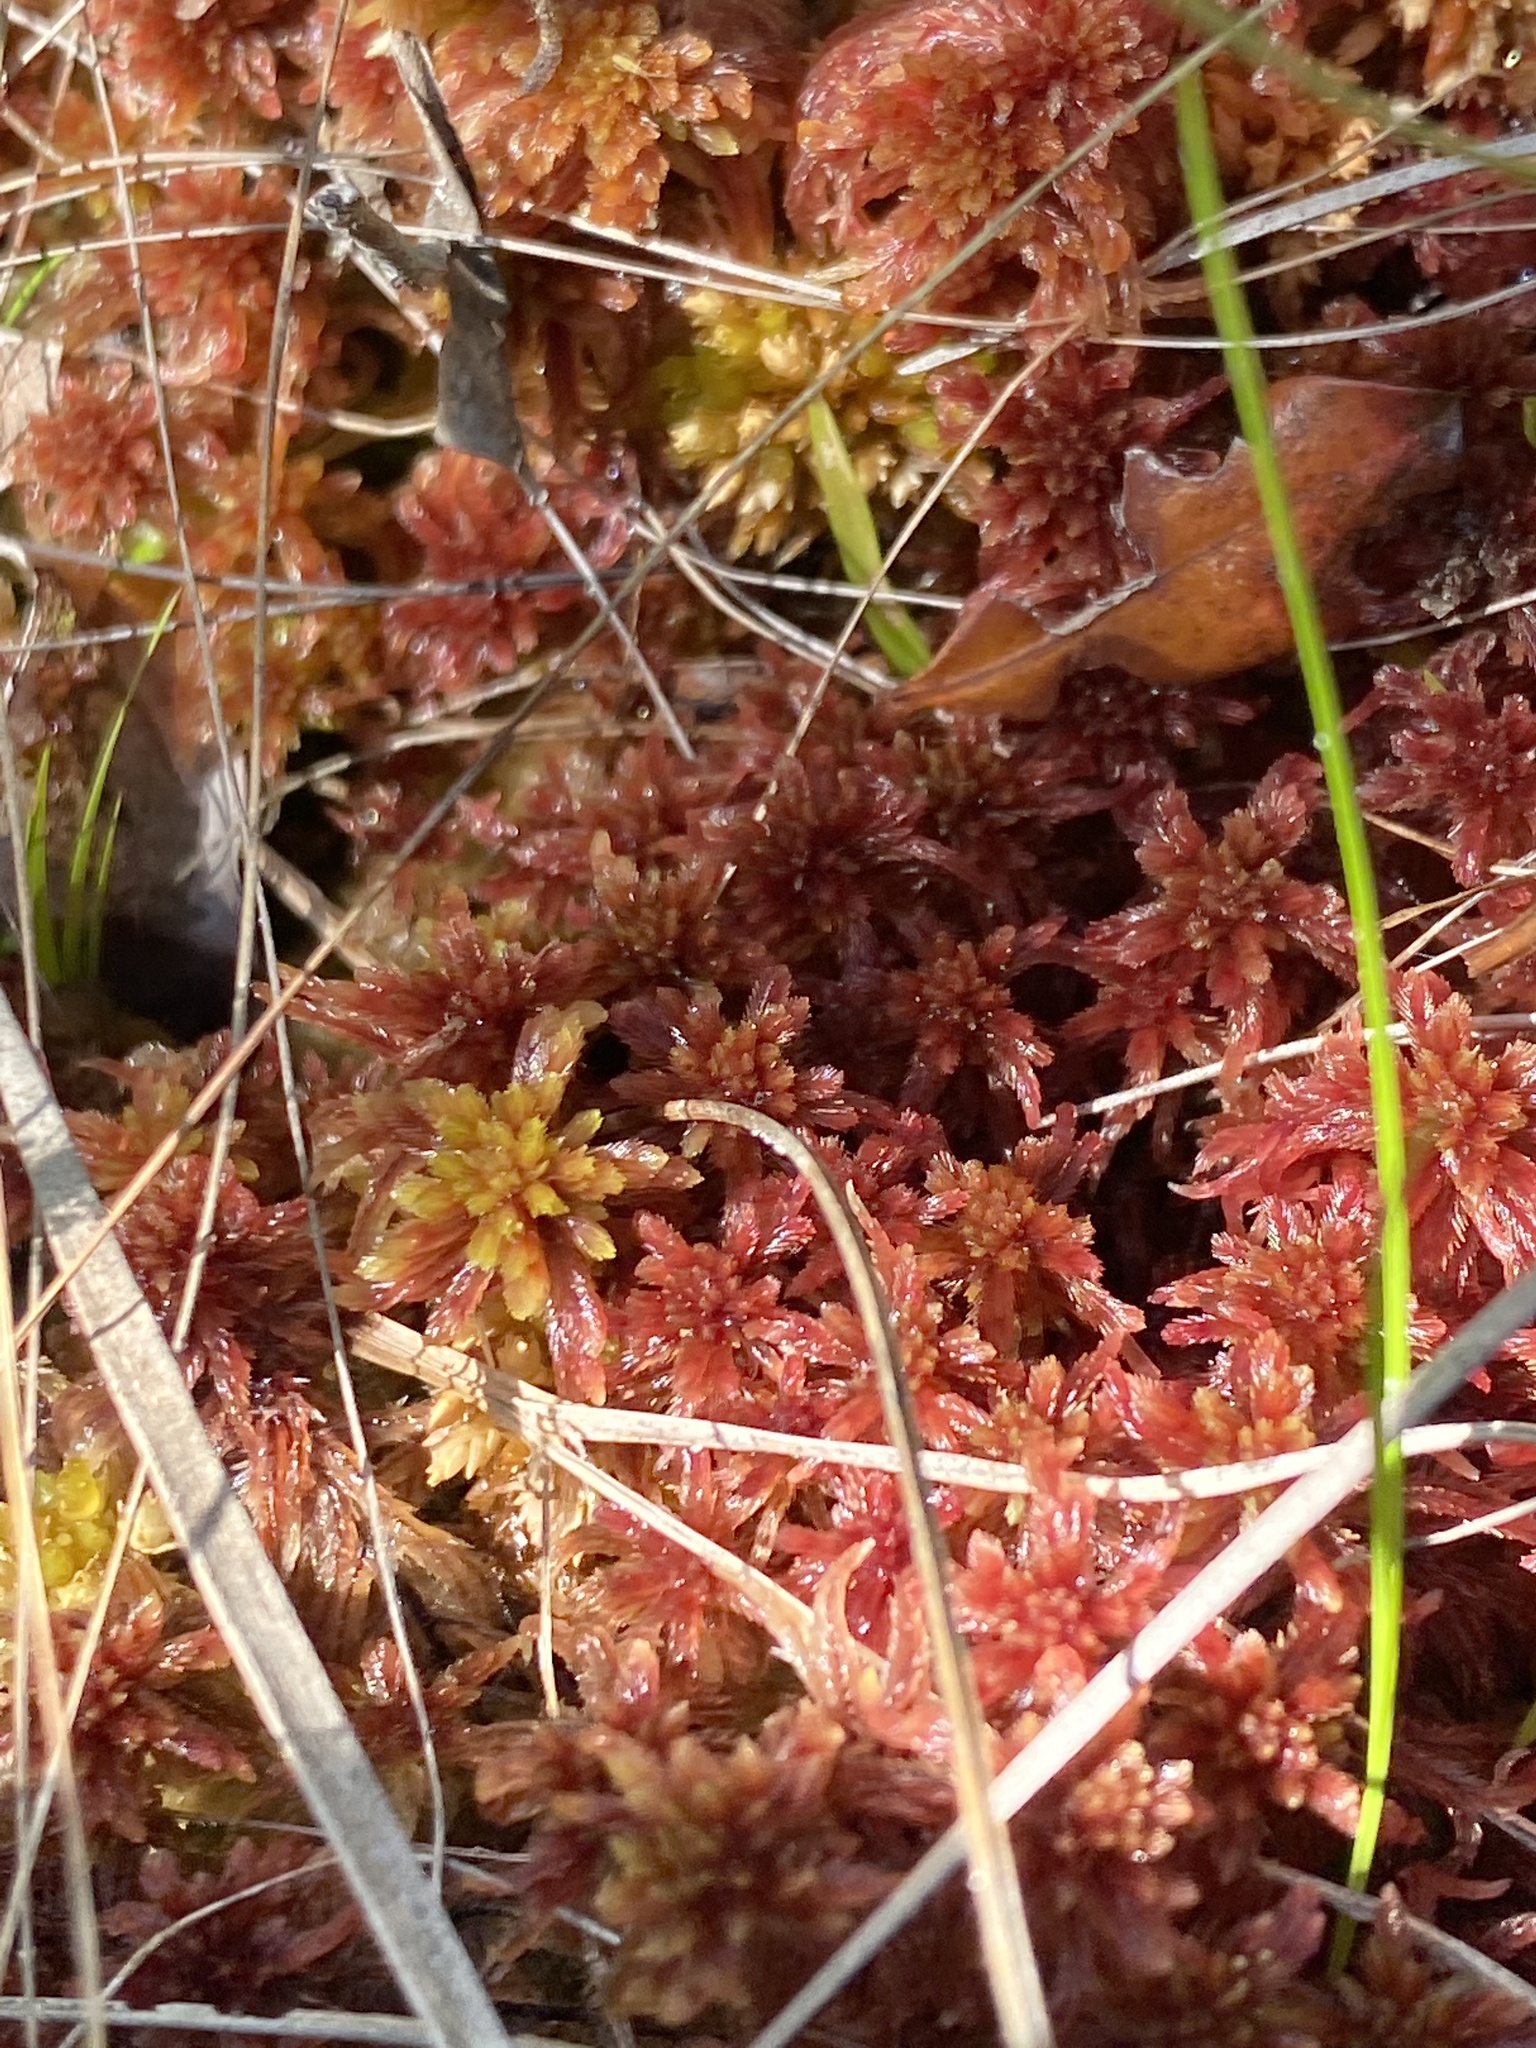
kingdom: Plantae
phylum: Bryophyta
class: Sphagnopsida
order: Sphagnales
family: Sphagnaceae
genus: Sphagnum
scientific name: Sphagnum bartlettianum
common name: Bartlett's peatmoss
